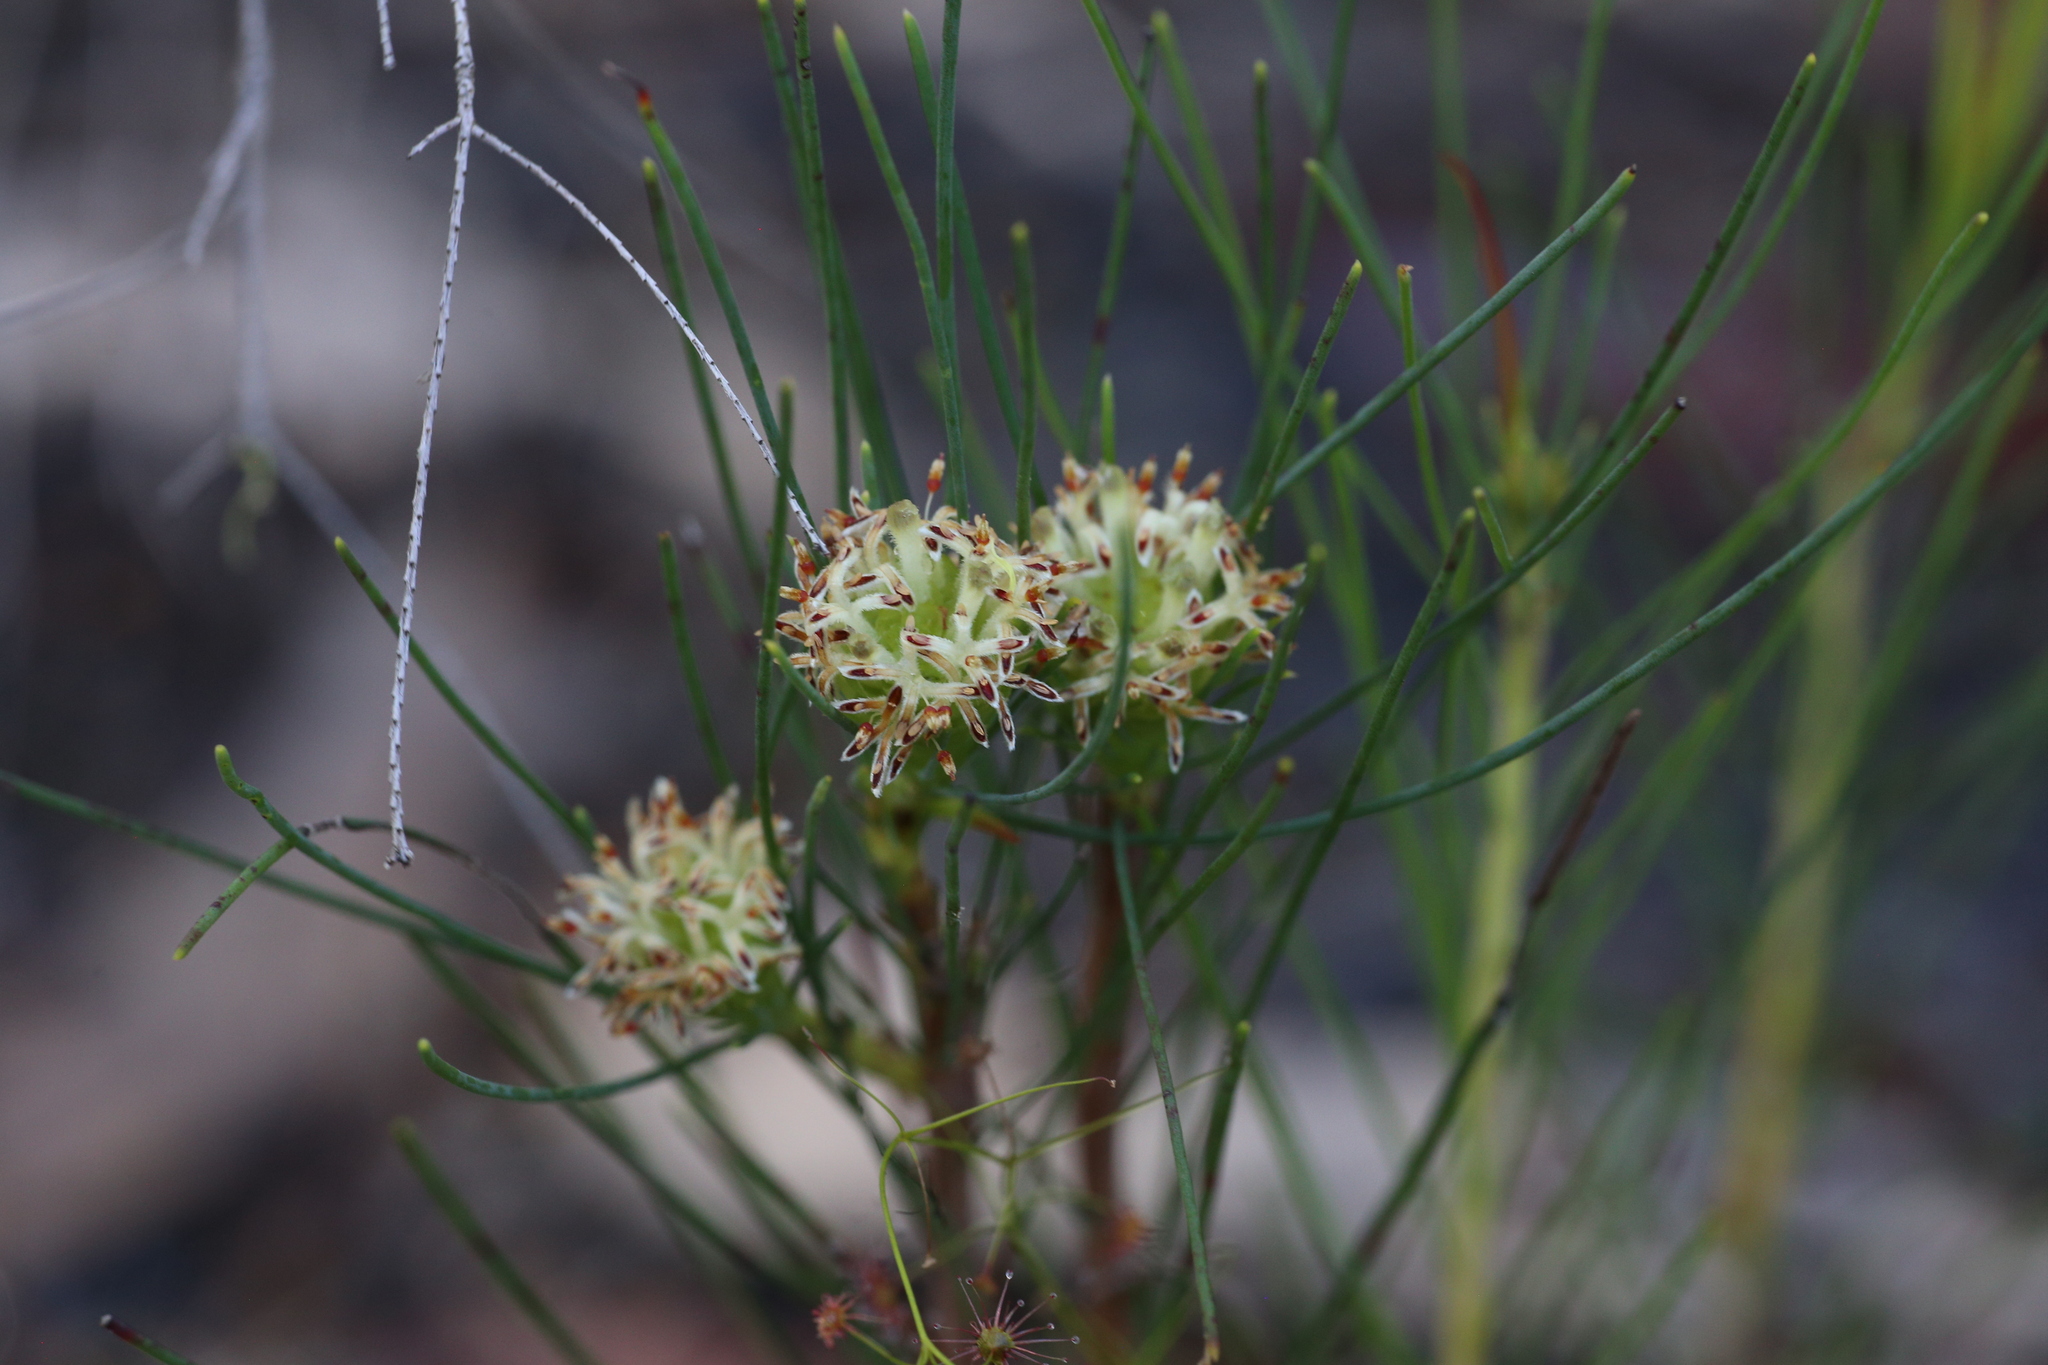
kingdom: Plantae
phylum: Tracheophyta
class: Magnoliopsida
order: Proteales
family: Proteaceae
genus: Petrophile
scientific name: Petrophile acicularis
